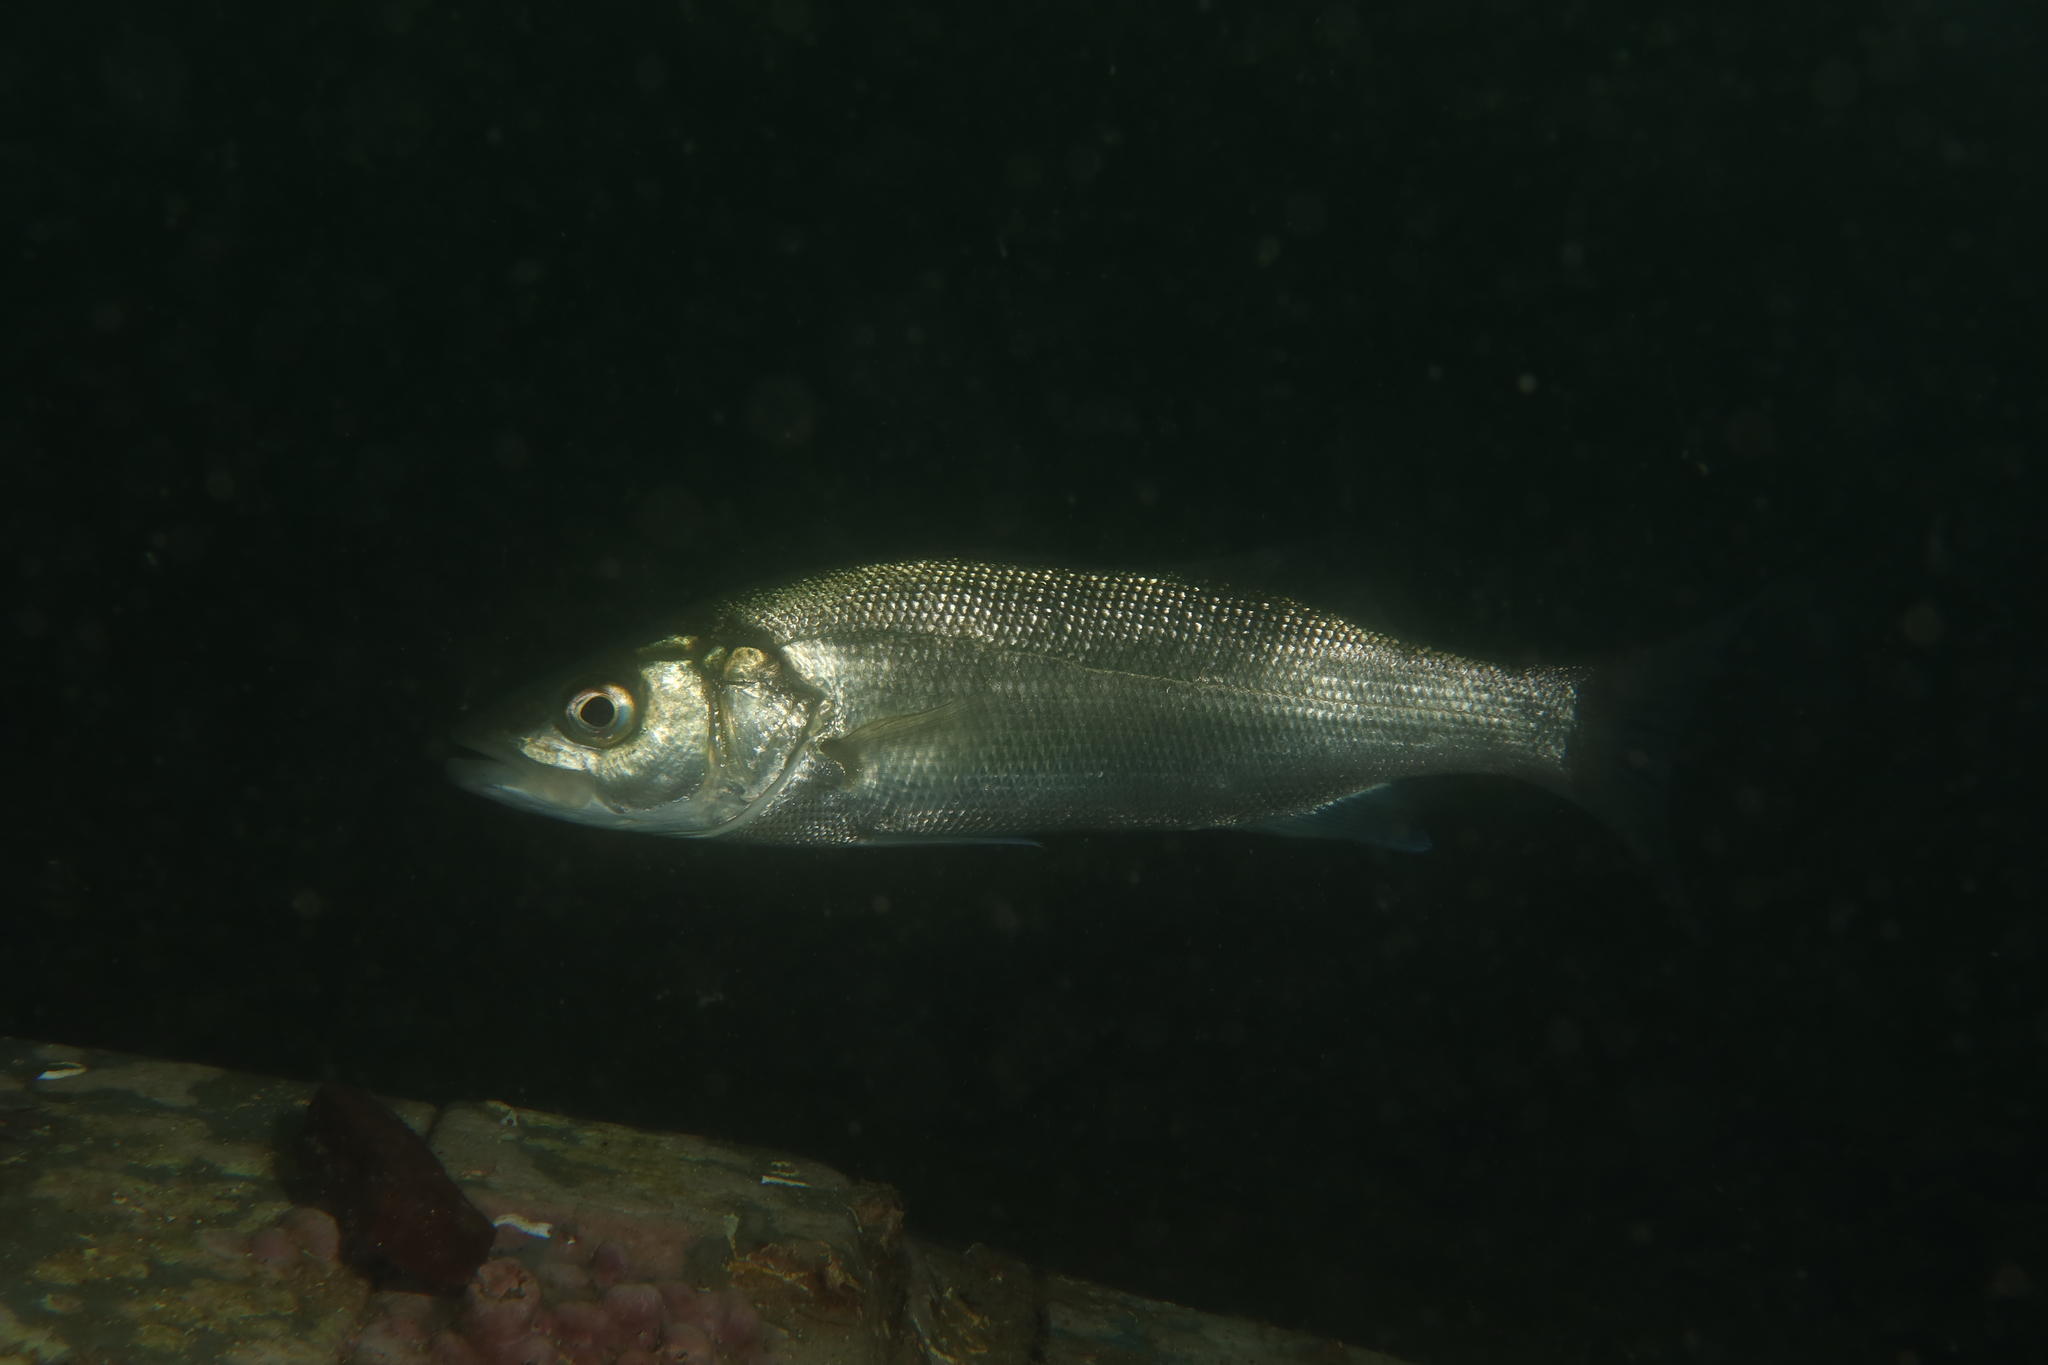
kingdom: Animalia
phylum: Chordata
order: Perciformes
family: Moronidae
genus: Dicentrarchus
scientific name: Dicentrarchus labrax
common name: European seabass
